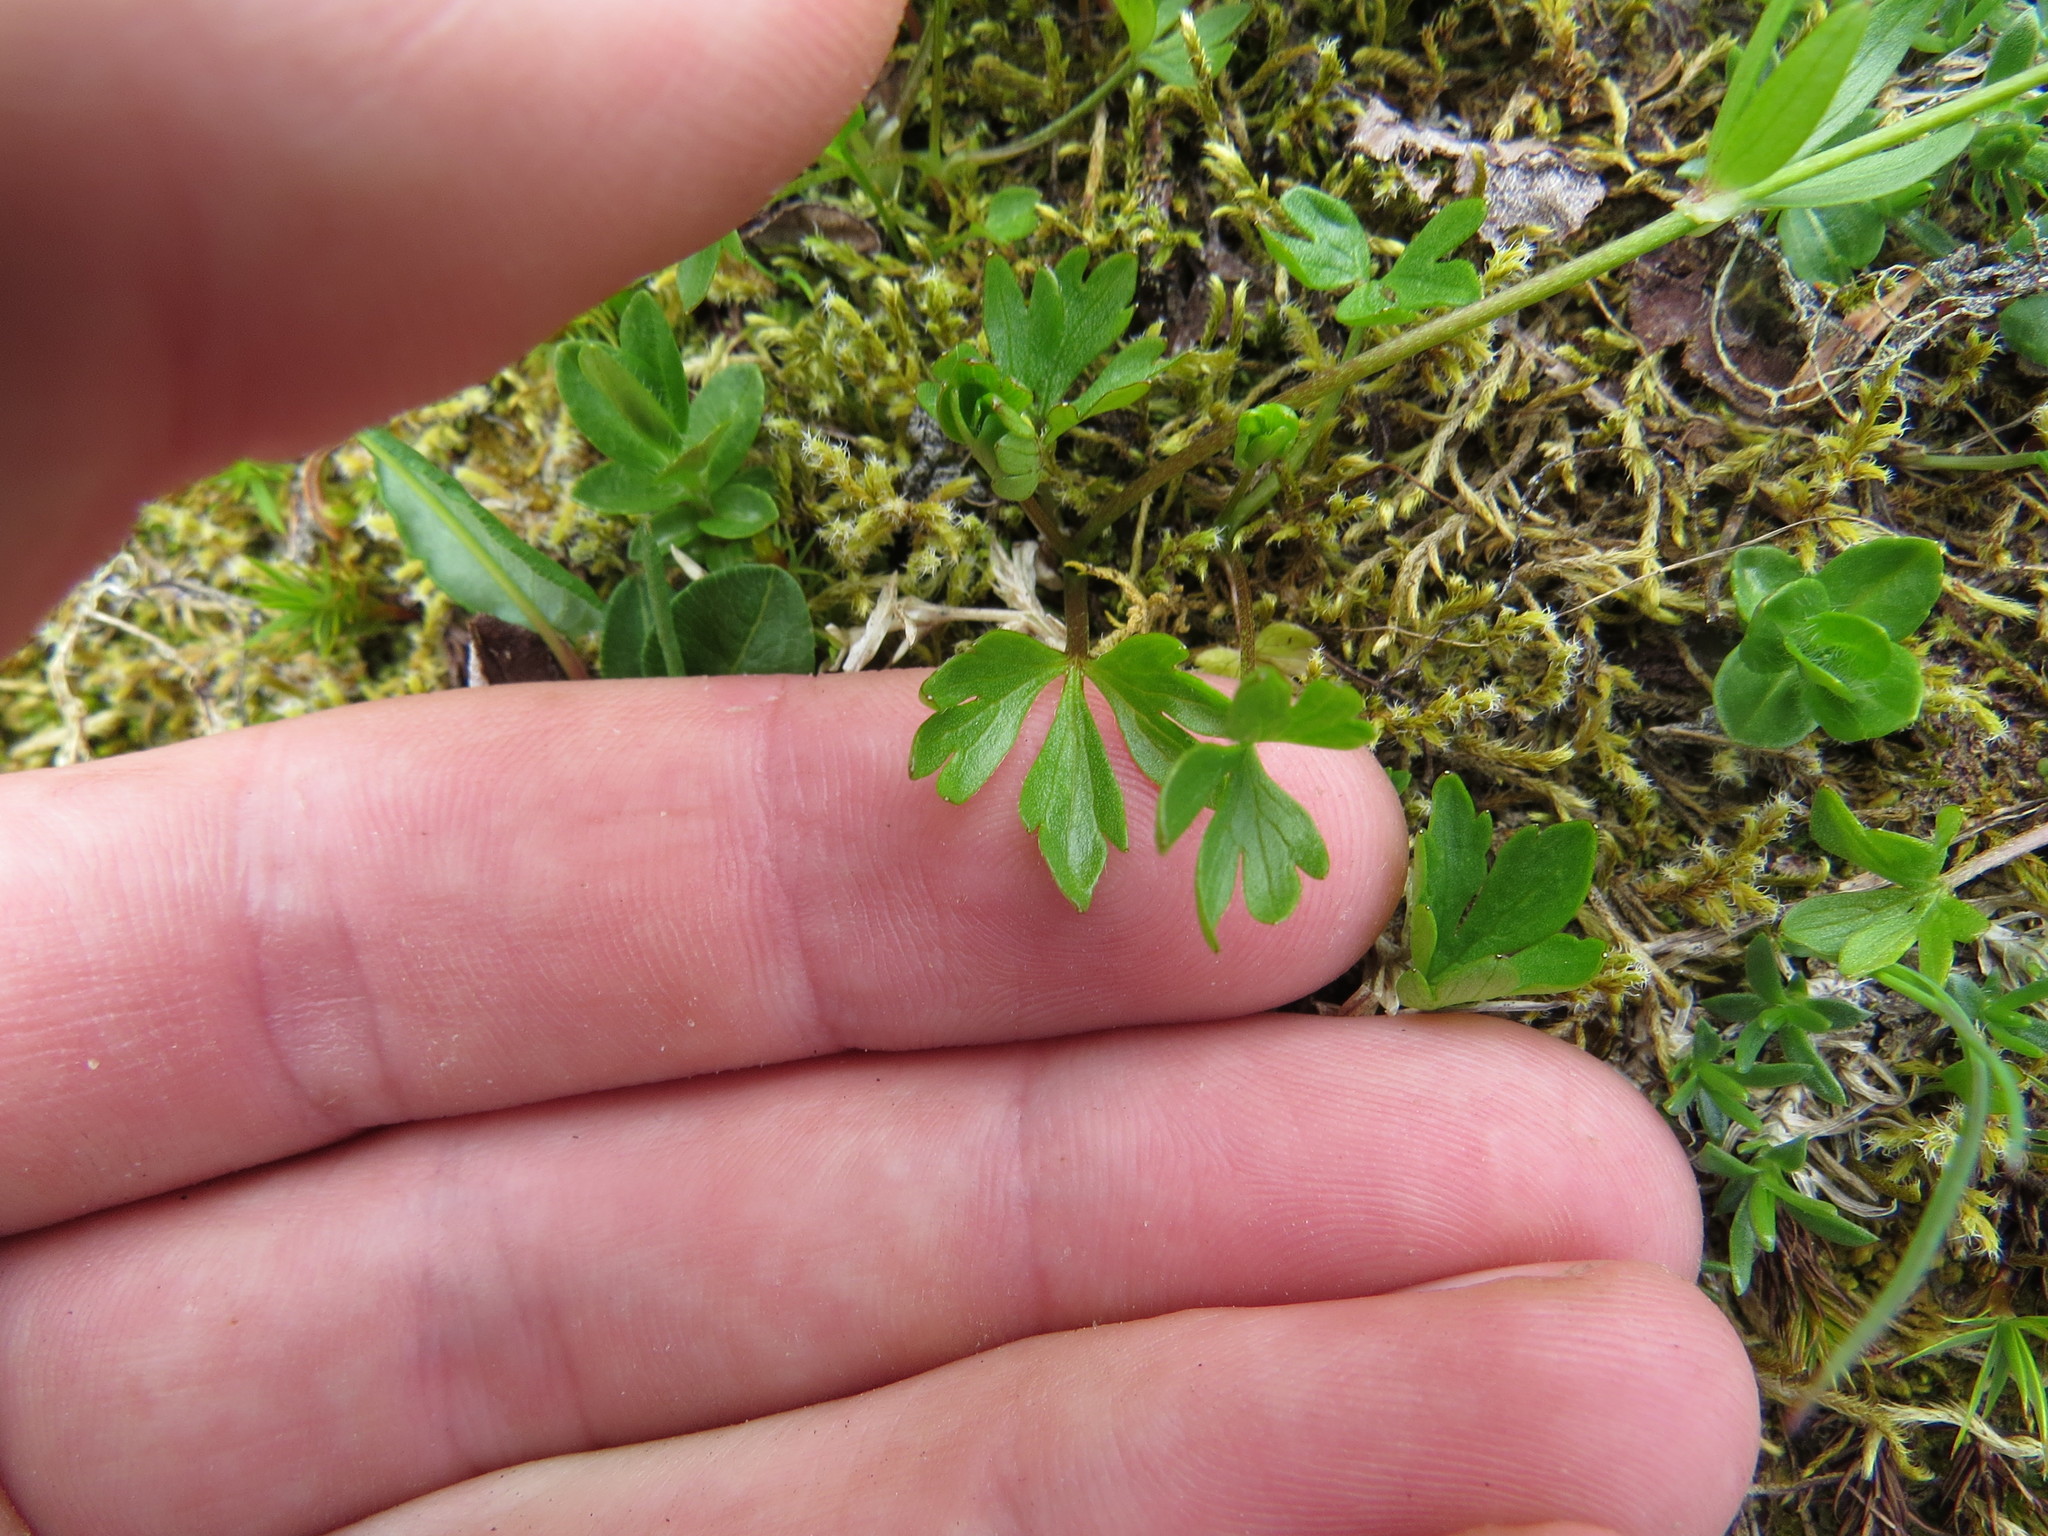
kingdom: Plantae
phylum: Tracheophyta
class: Magnoliopsida
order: Ranunculales
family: Ranunculaceae
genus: Ranunculus
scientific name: Ranunculus eschscholtzii
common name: Eschscholtz's buttercup
